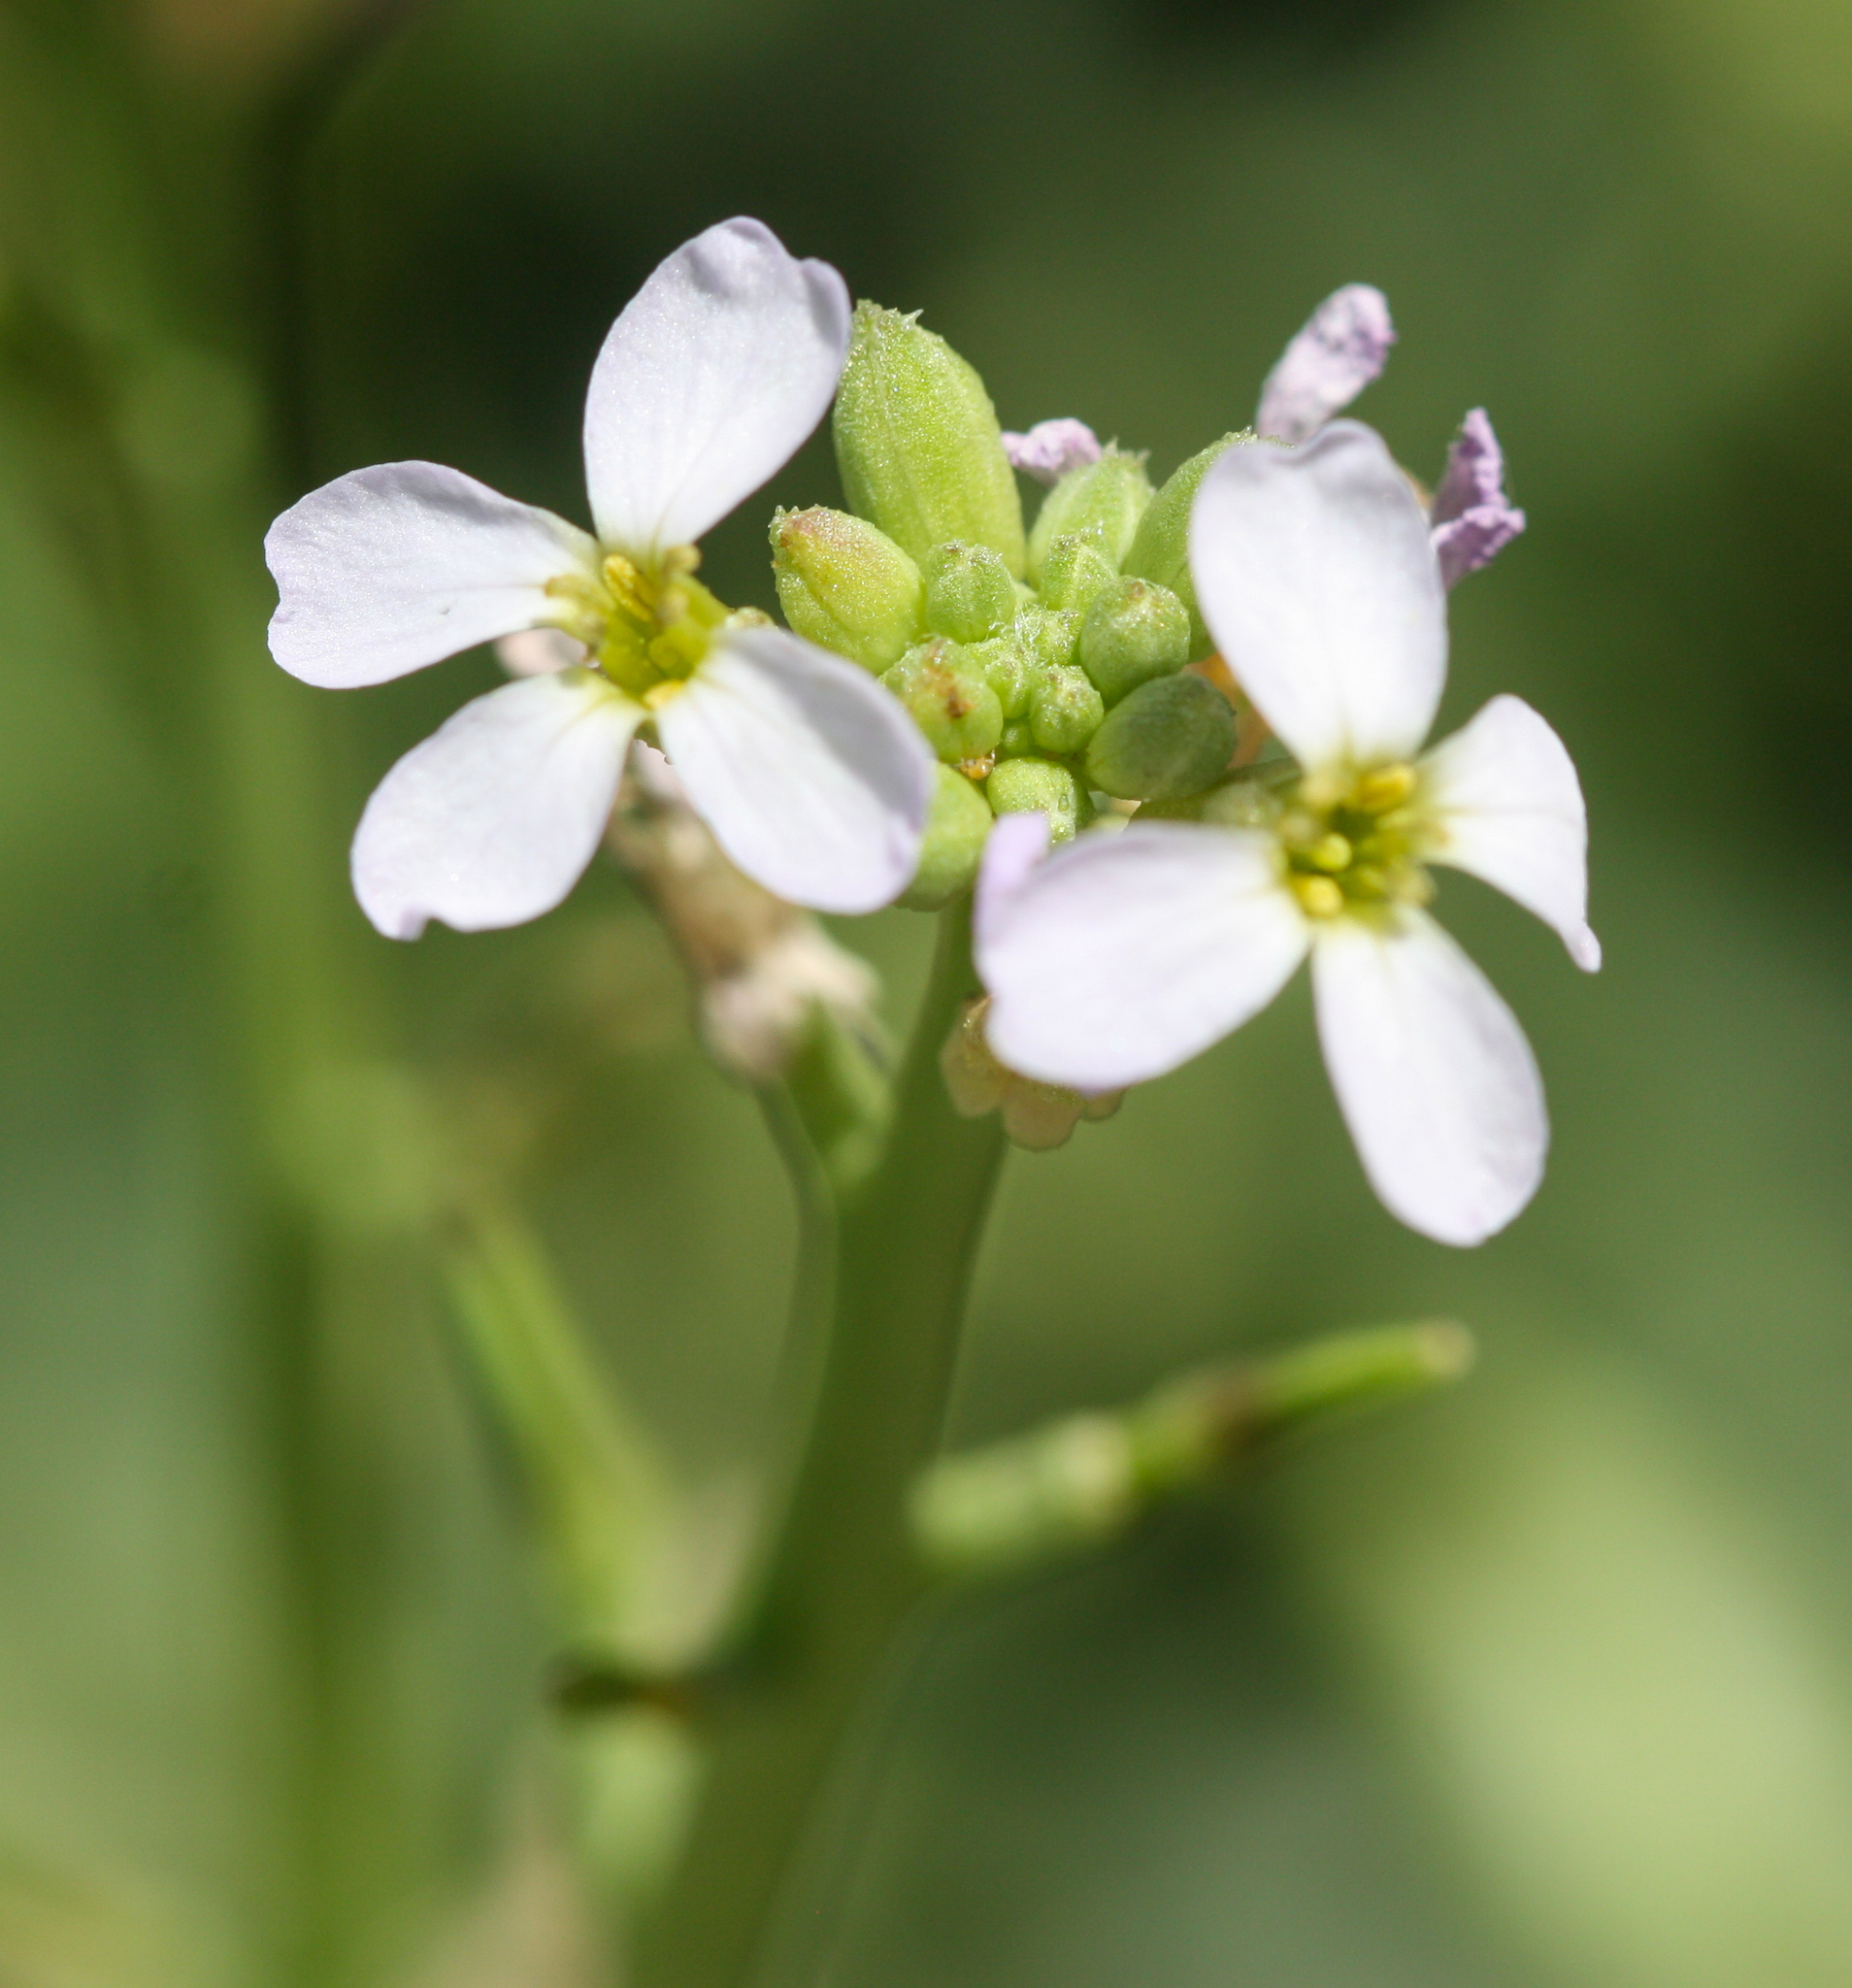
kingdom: Plantae
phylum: Tracheophyta
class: Magnoliopsida
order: Brassicales
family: Brassicaceae
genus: Cakile
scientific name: Cakile maritima
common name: Sea rocket
